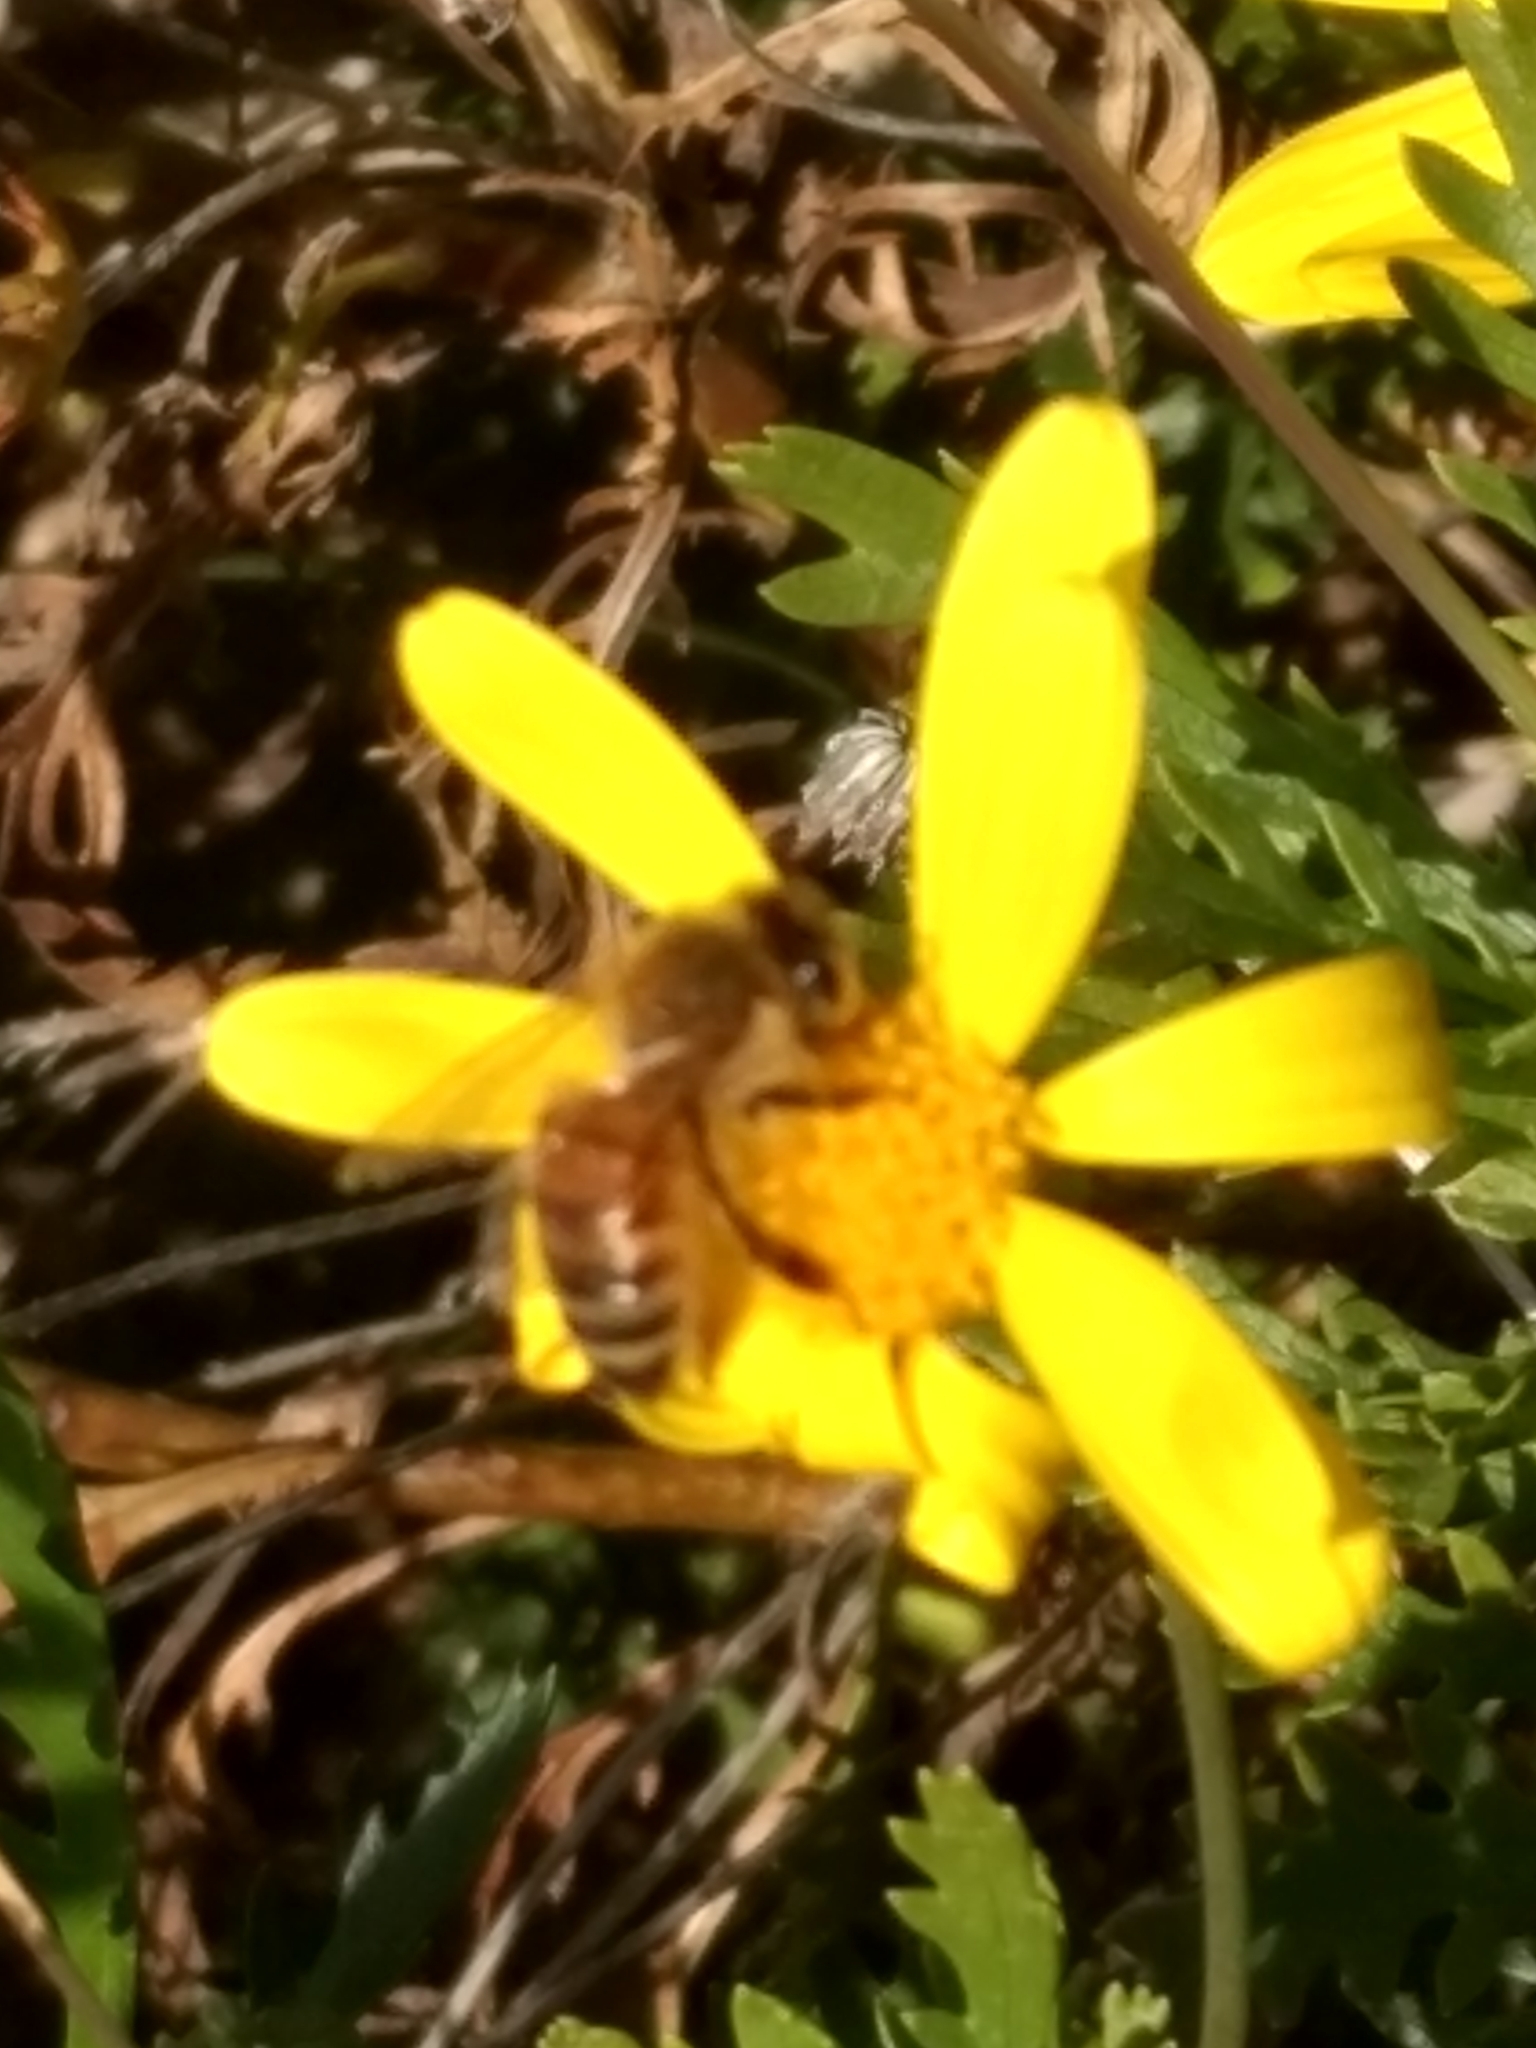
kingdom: Animalia
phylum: Arthropoda
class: Insecta
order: Hymenoptera
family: Apidae
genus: Apis
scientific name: Apis mellifera
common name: Honey bee
